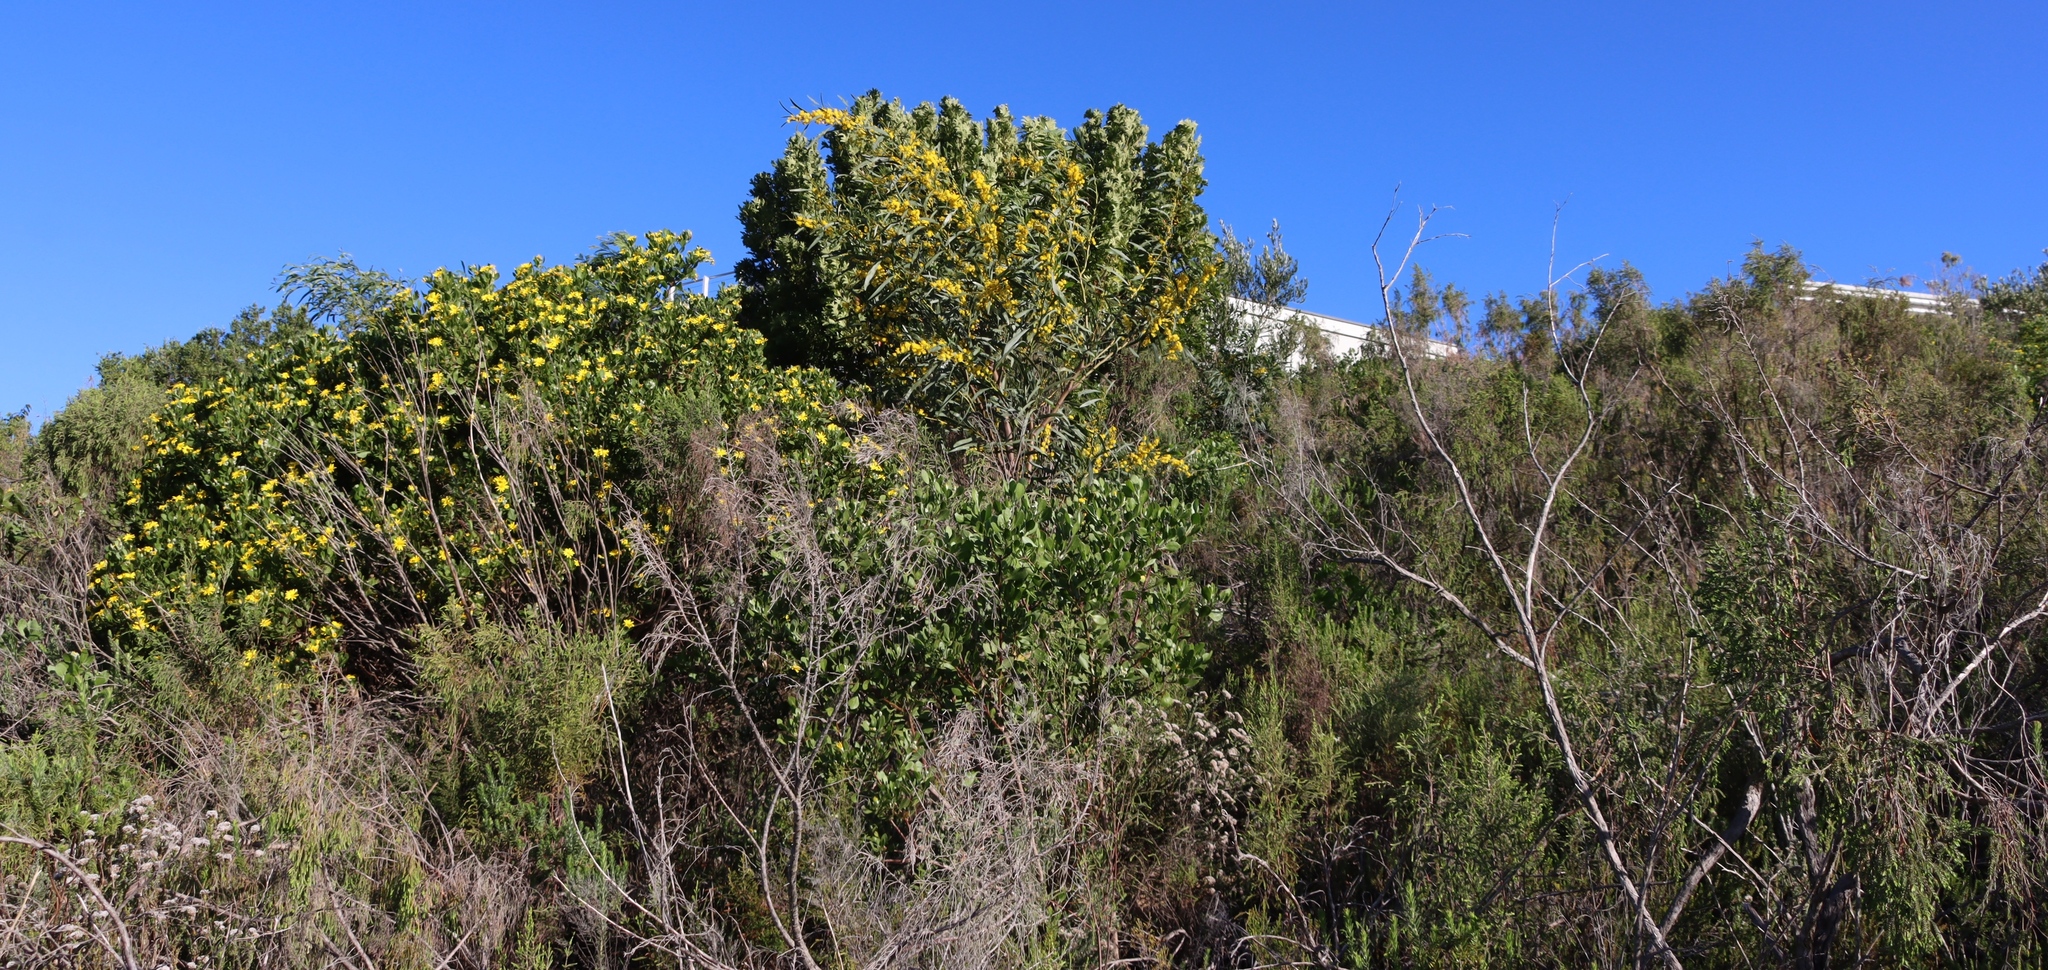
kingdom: Plantae
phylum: Tracheophyta
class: Magnoliopsida
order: Fabales
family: Fabaceae
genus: Acacia
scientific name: Acacia saligna
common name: Orange wattle
